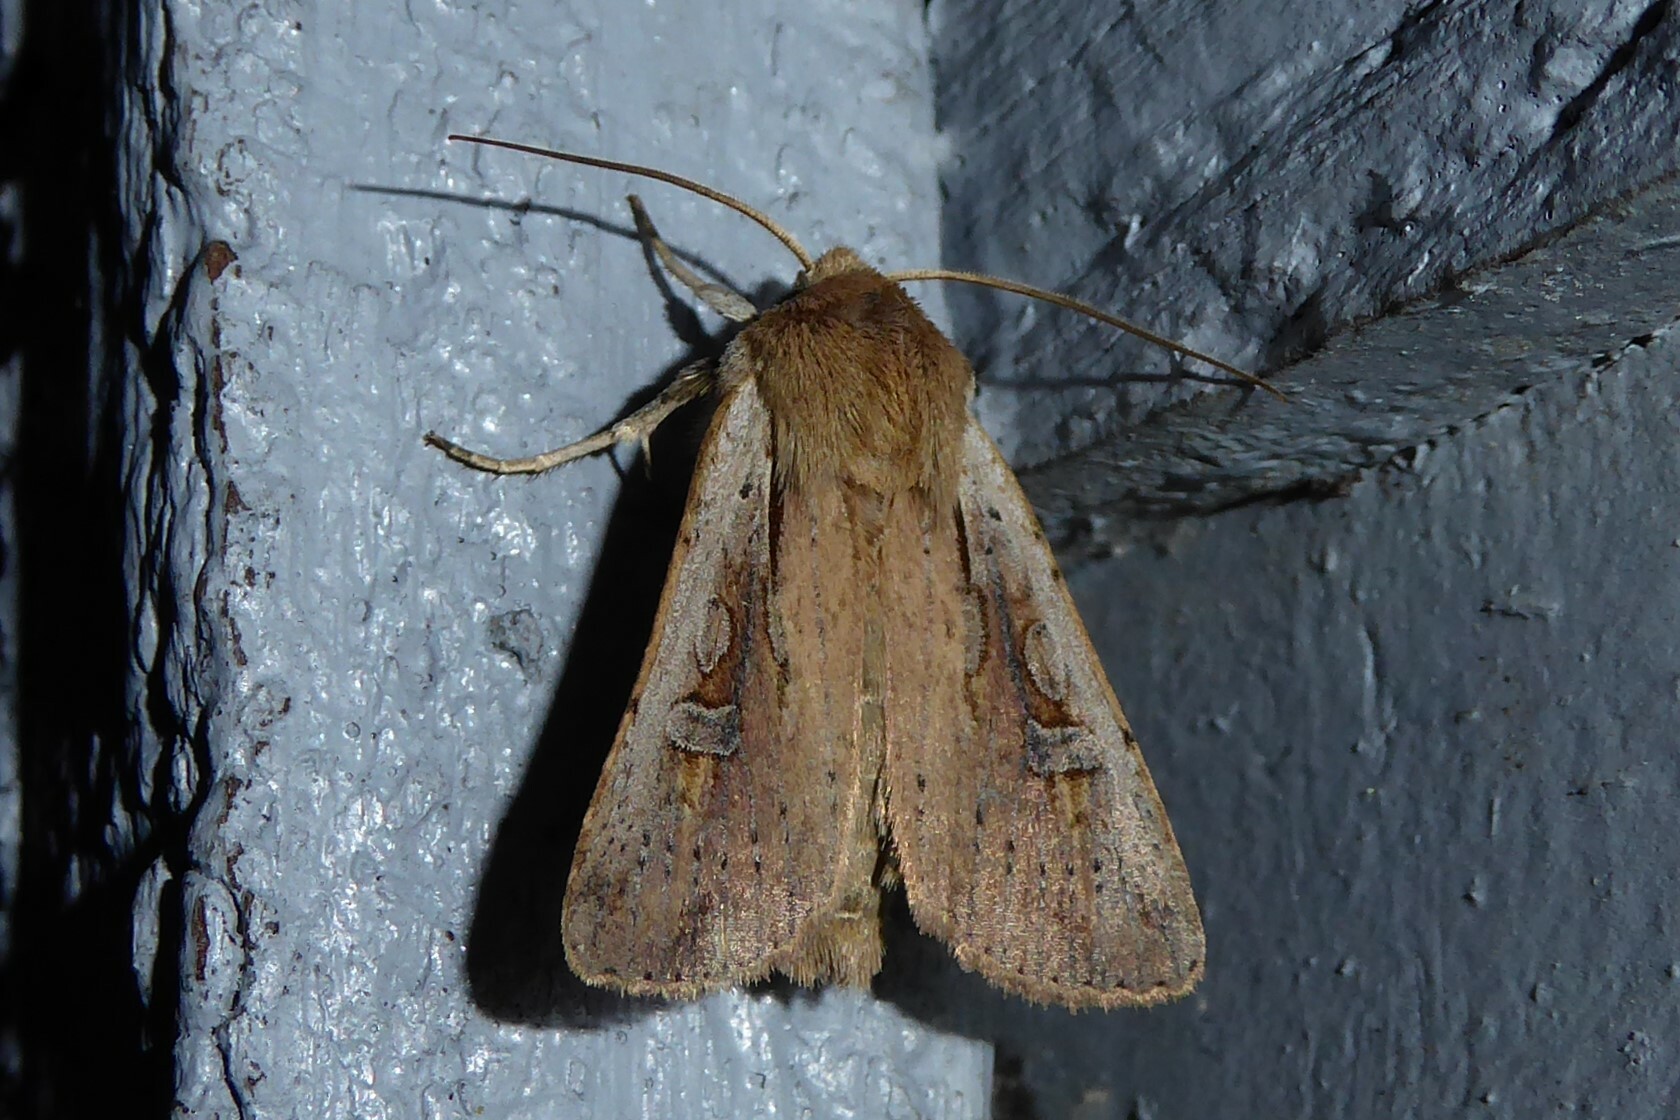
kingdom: Animalia
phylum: Arthropoda
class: Insecta
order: Lepidoptera
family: Noctuidae
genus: Ichneutica
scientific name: Ichneutica atristriga
